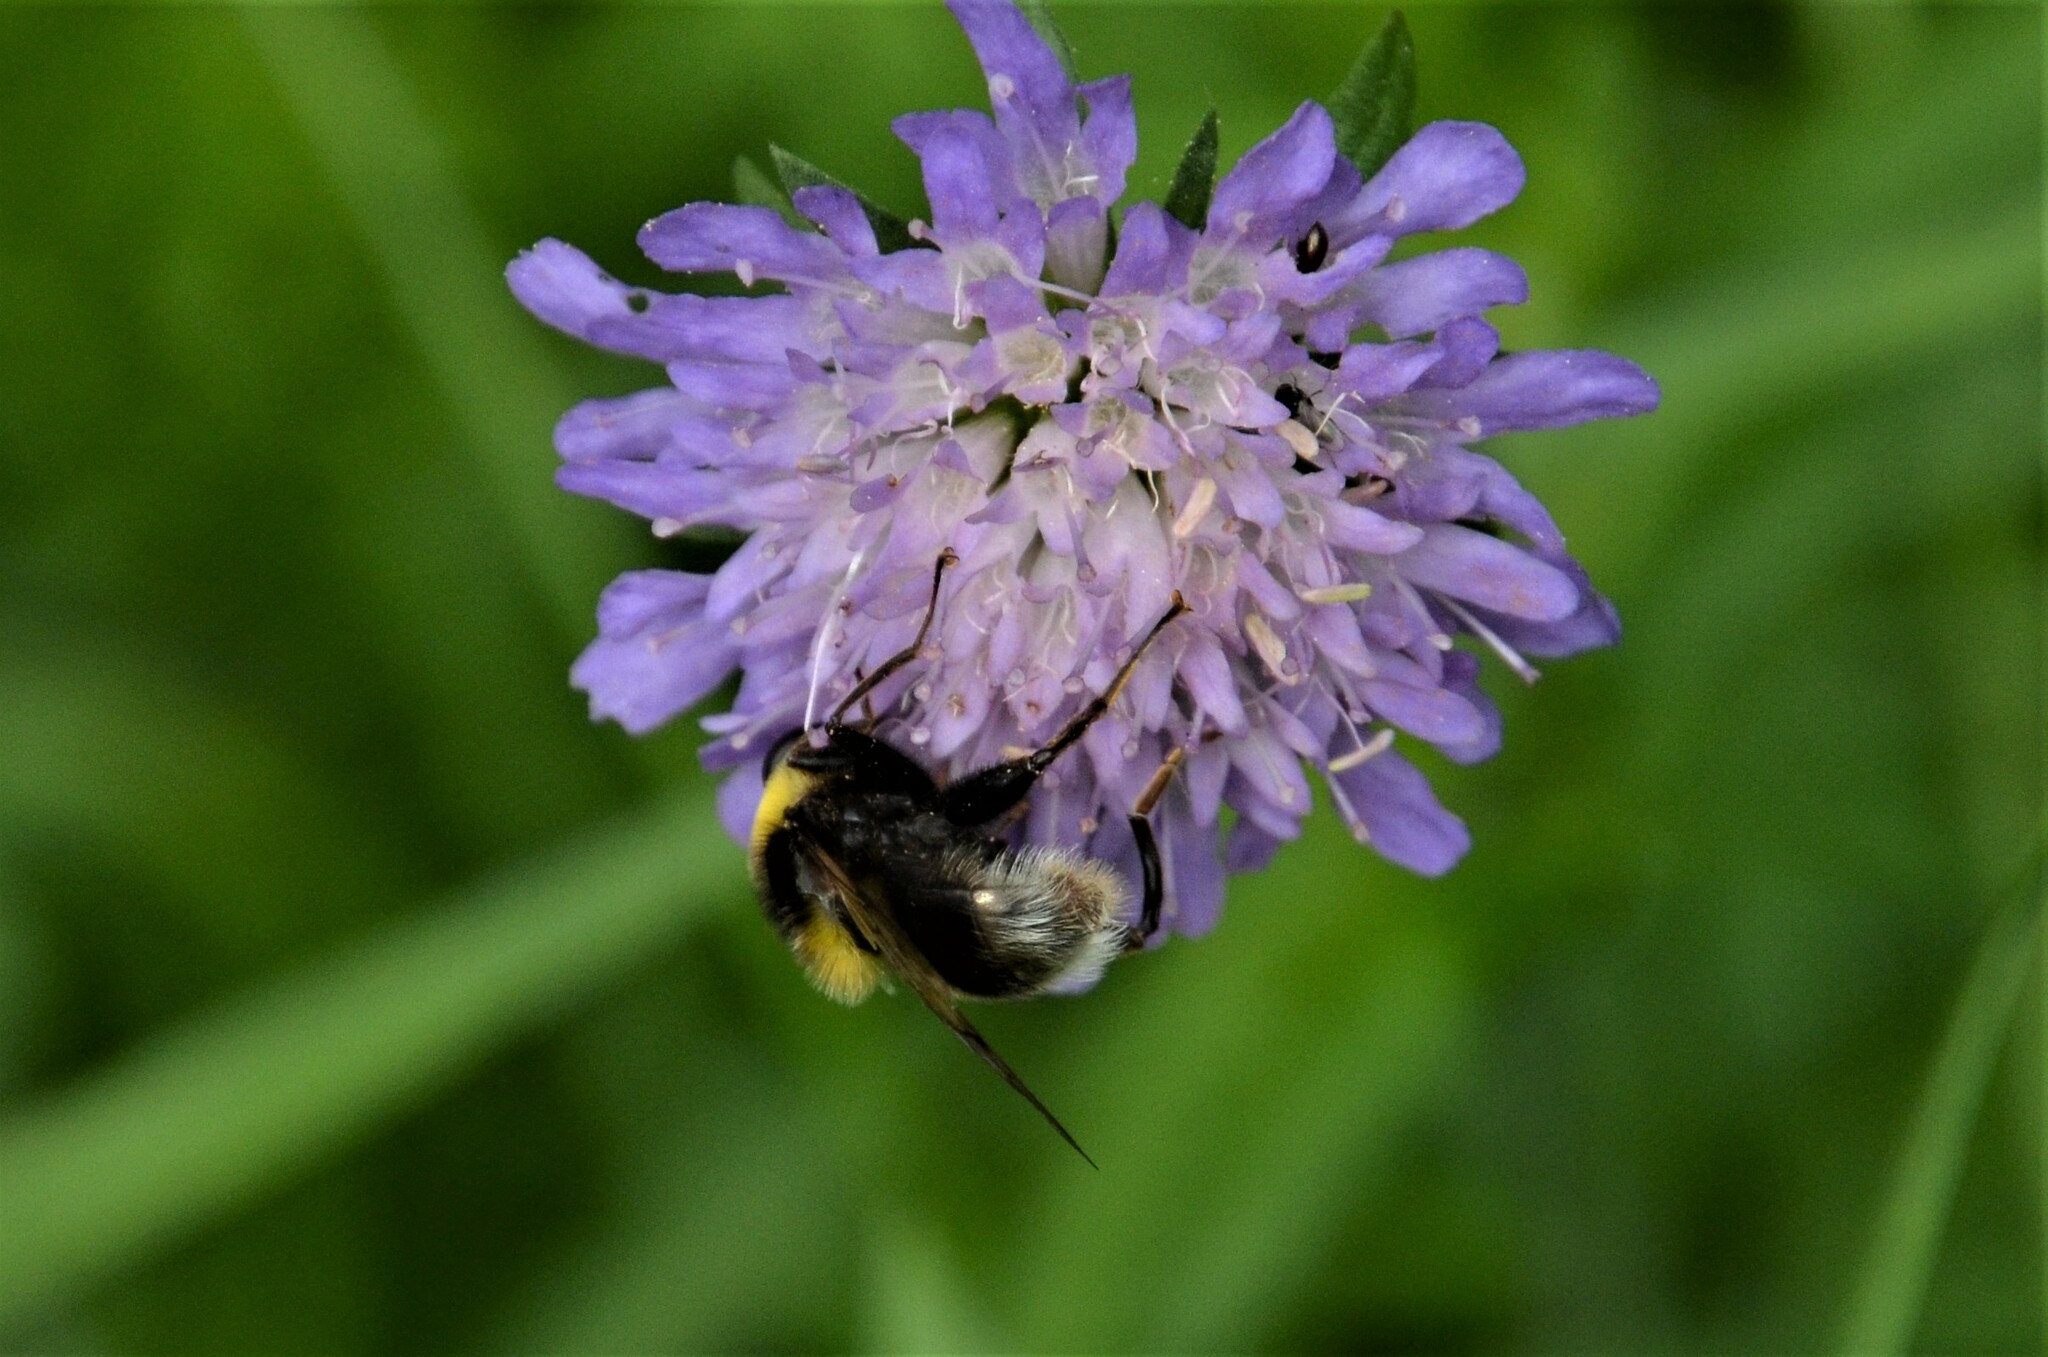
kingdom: Animalia
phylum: Arthropoda
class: Insecta
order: Diptera
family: Syrphidae
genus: Sericomyia
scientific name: Sericomyia bombiformis
